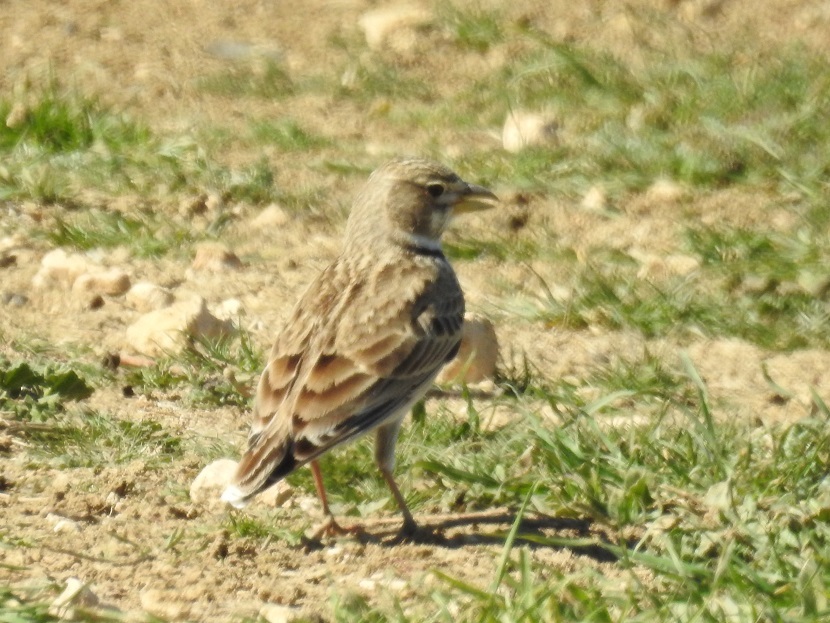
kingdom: Animalia
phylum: Chordata
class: Aves
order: Passeriformes
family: Alaudidae
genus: Melanocorypha
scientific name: Melanocorypha calandra
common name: Calandra lark
